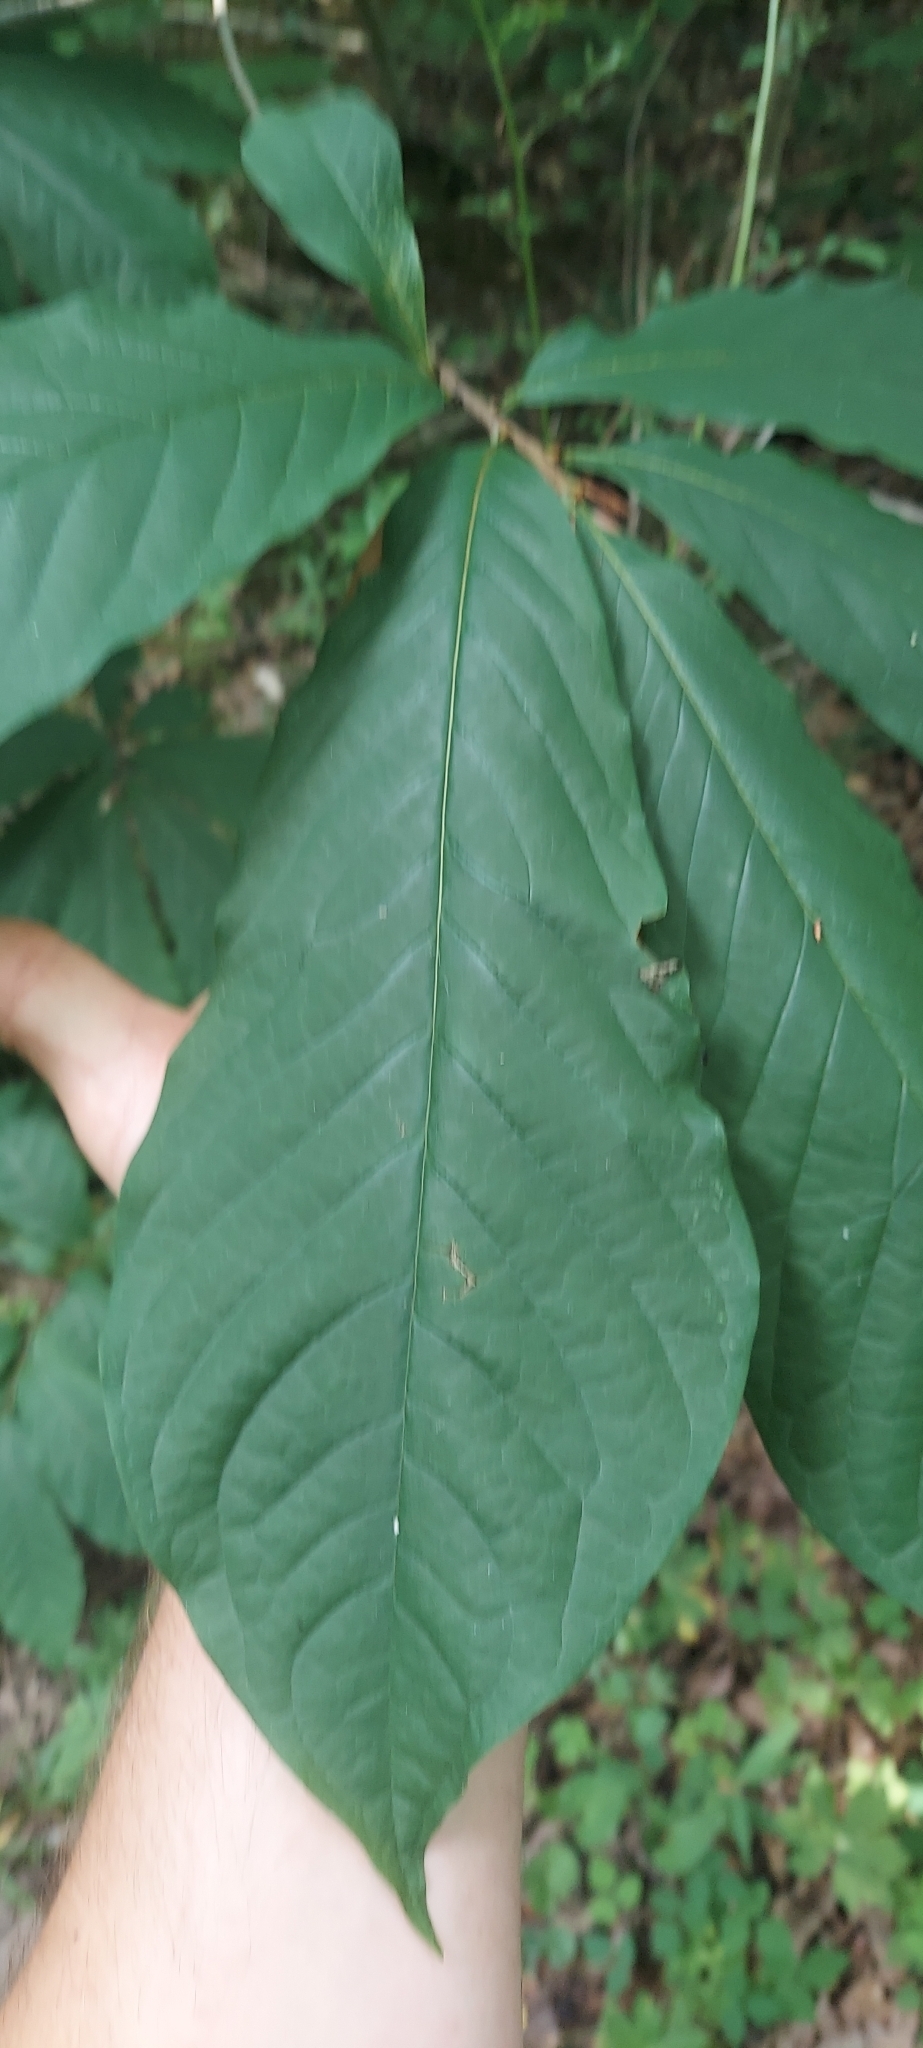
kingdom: Plantae
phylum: Tracheophyta
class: Magnoliopsida
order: Magnoliales
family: Annonaceae
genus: Asimina
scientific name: Asimina triloba
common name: Dog-banana
